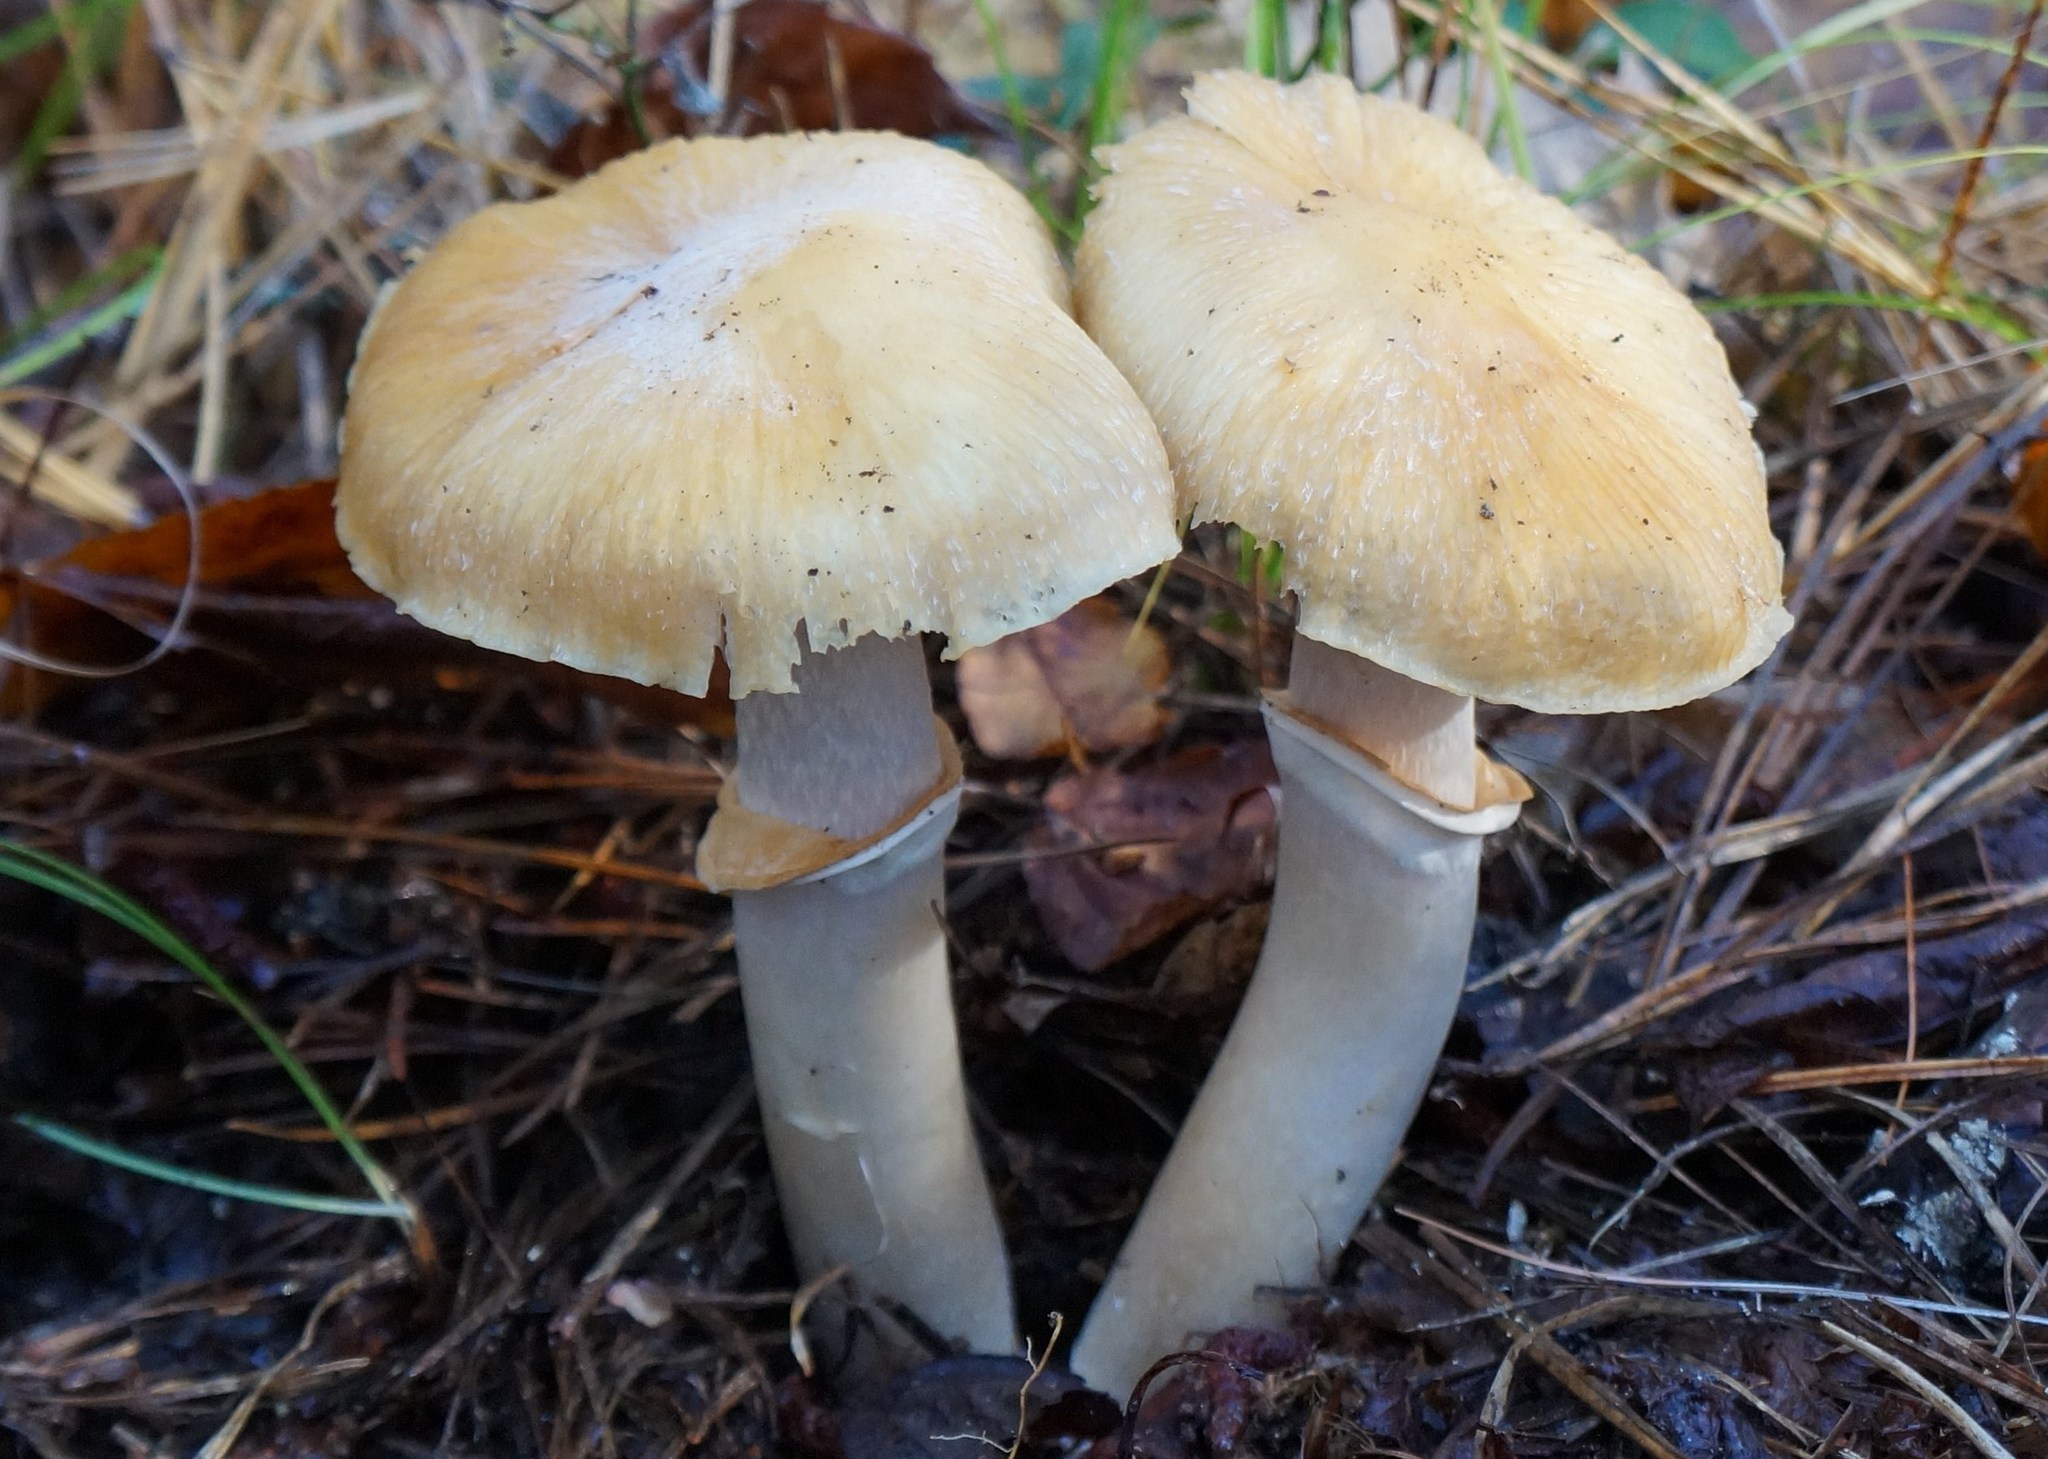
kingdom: Fungi
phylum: Basidiomycota
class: Agaricomycetes
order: Agaricales
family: Cortinariaceae
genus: Cortinarius
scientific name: Cortinarius caperatus
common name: The gypsy
